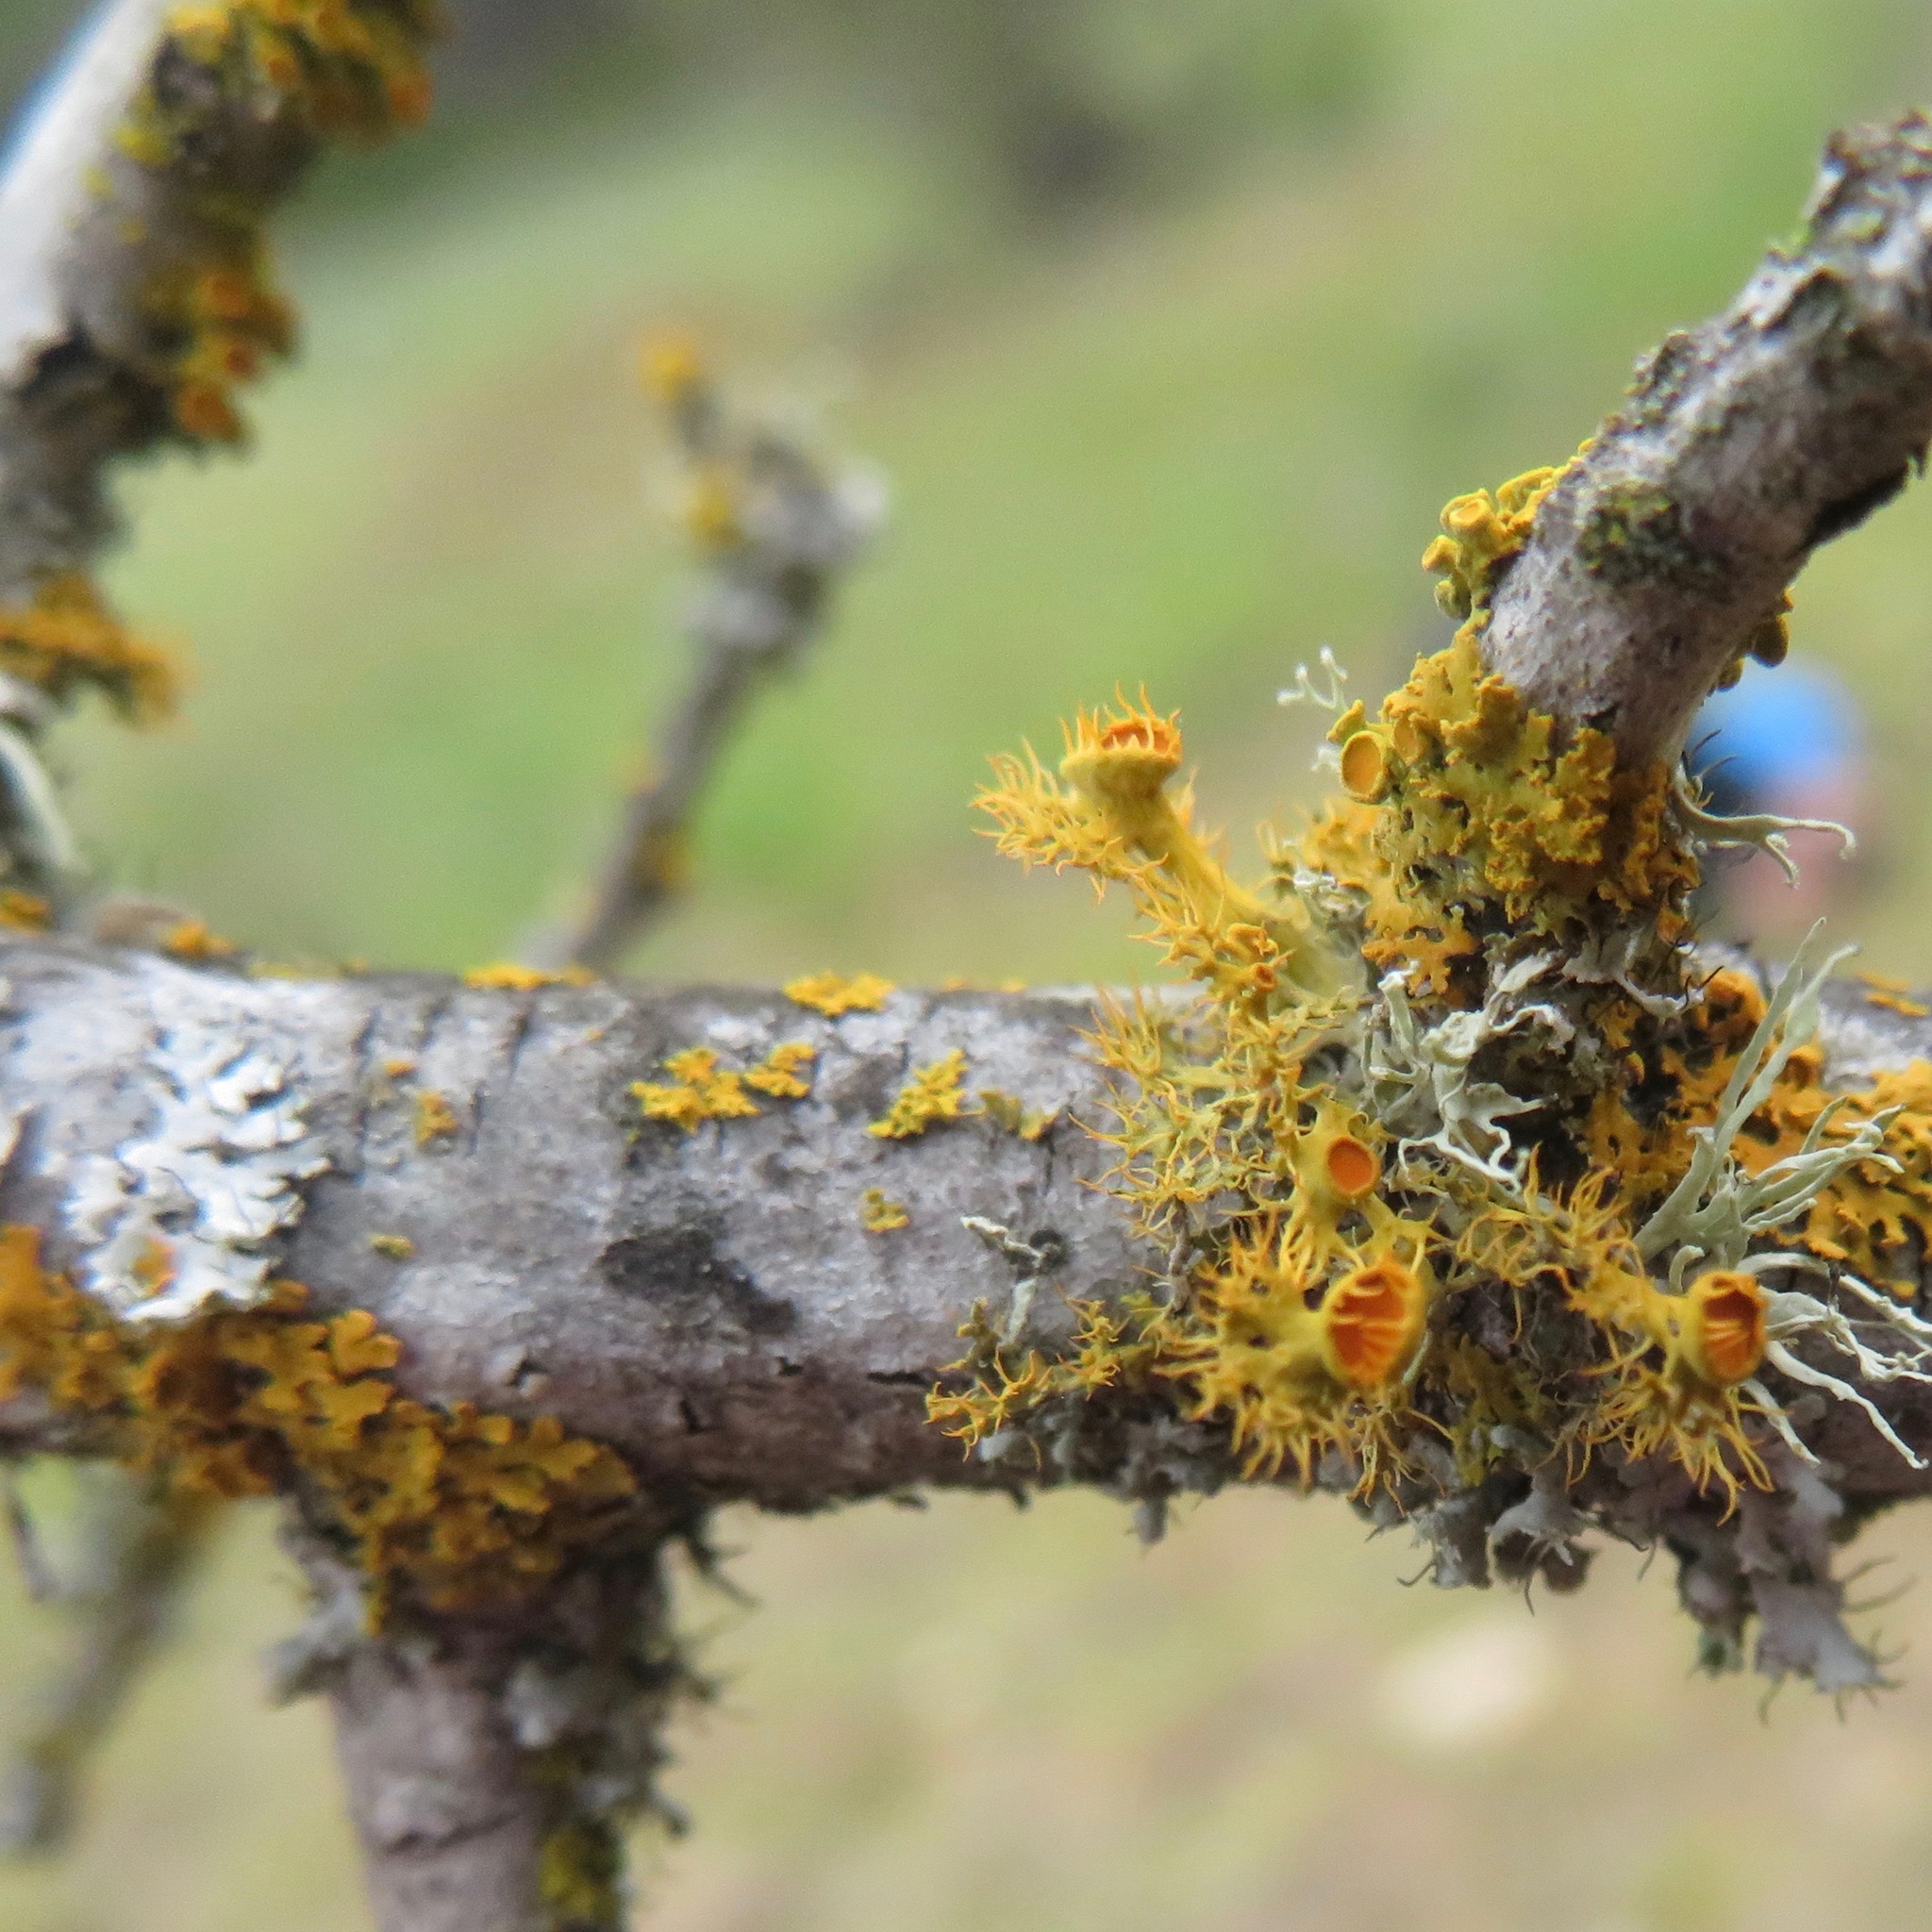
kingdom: Fungi
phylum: Ascomycota
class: Lecanoromycetes
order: Teloschistales
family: Teloschistaceae
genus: Niorma
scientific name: Niorma chrysophthalma
